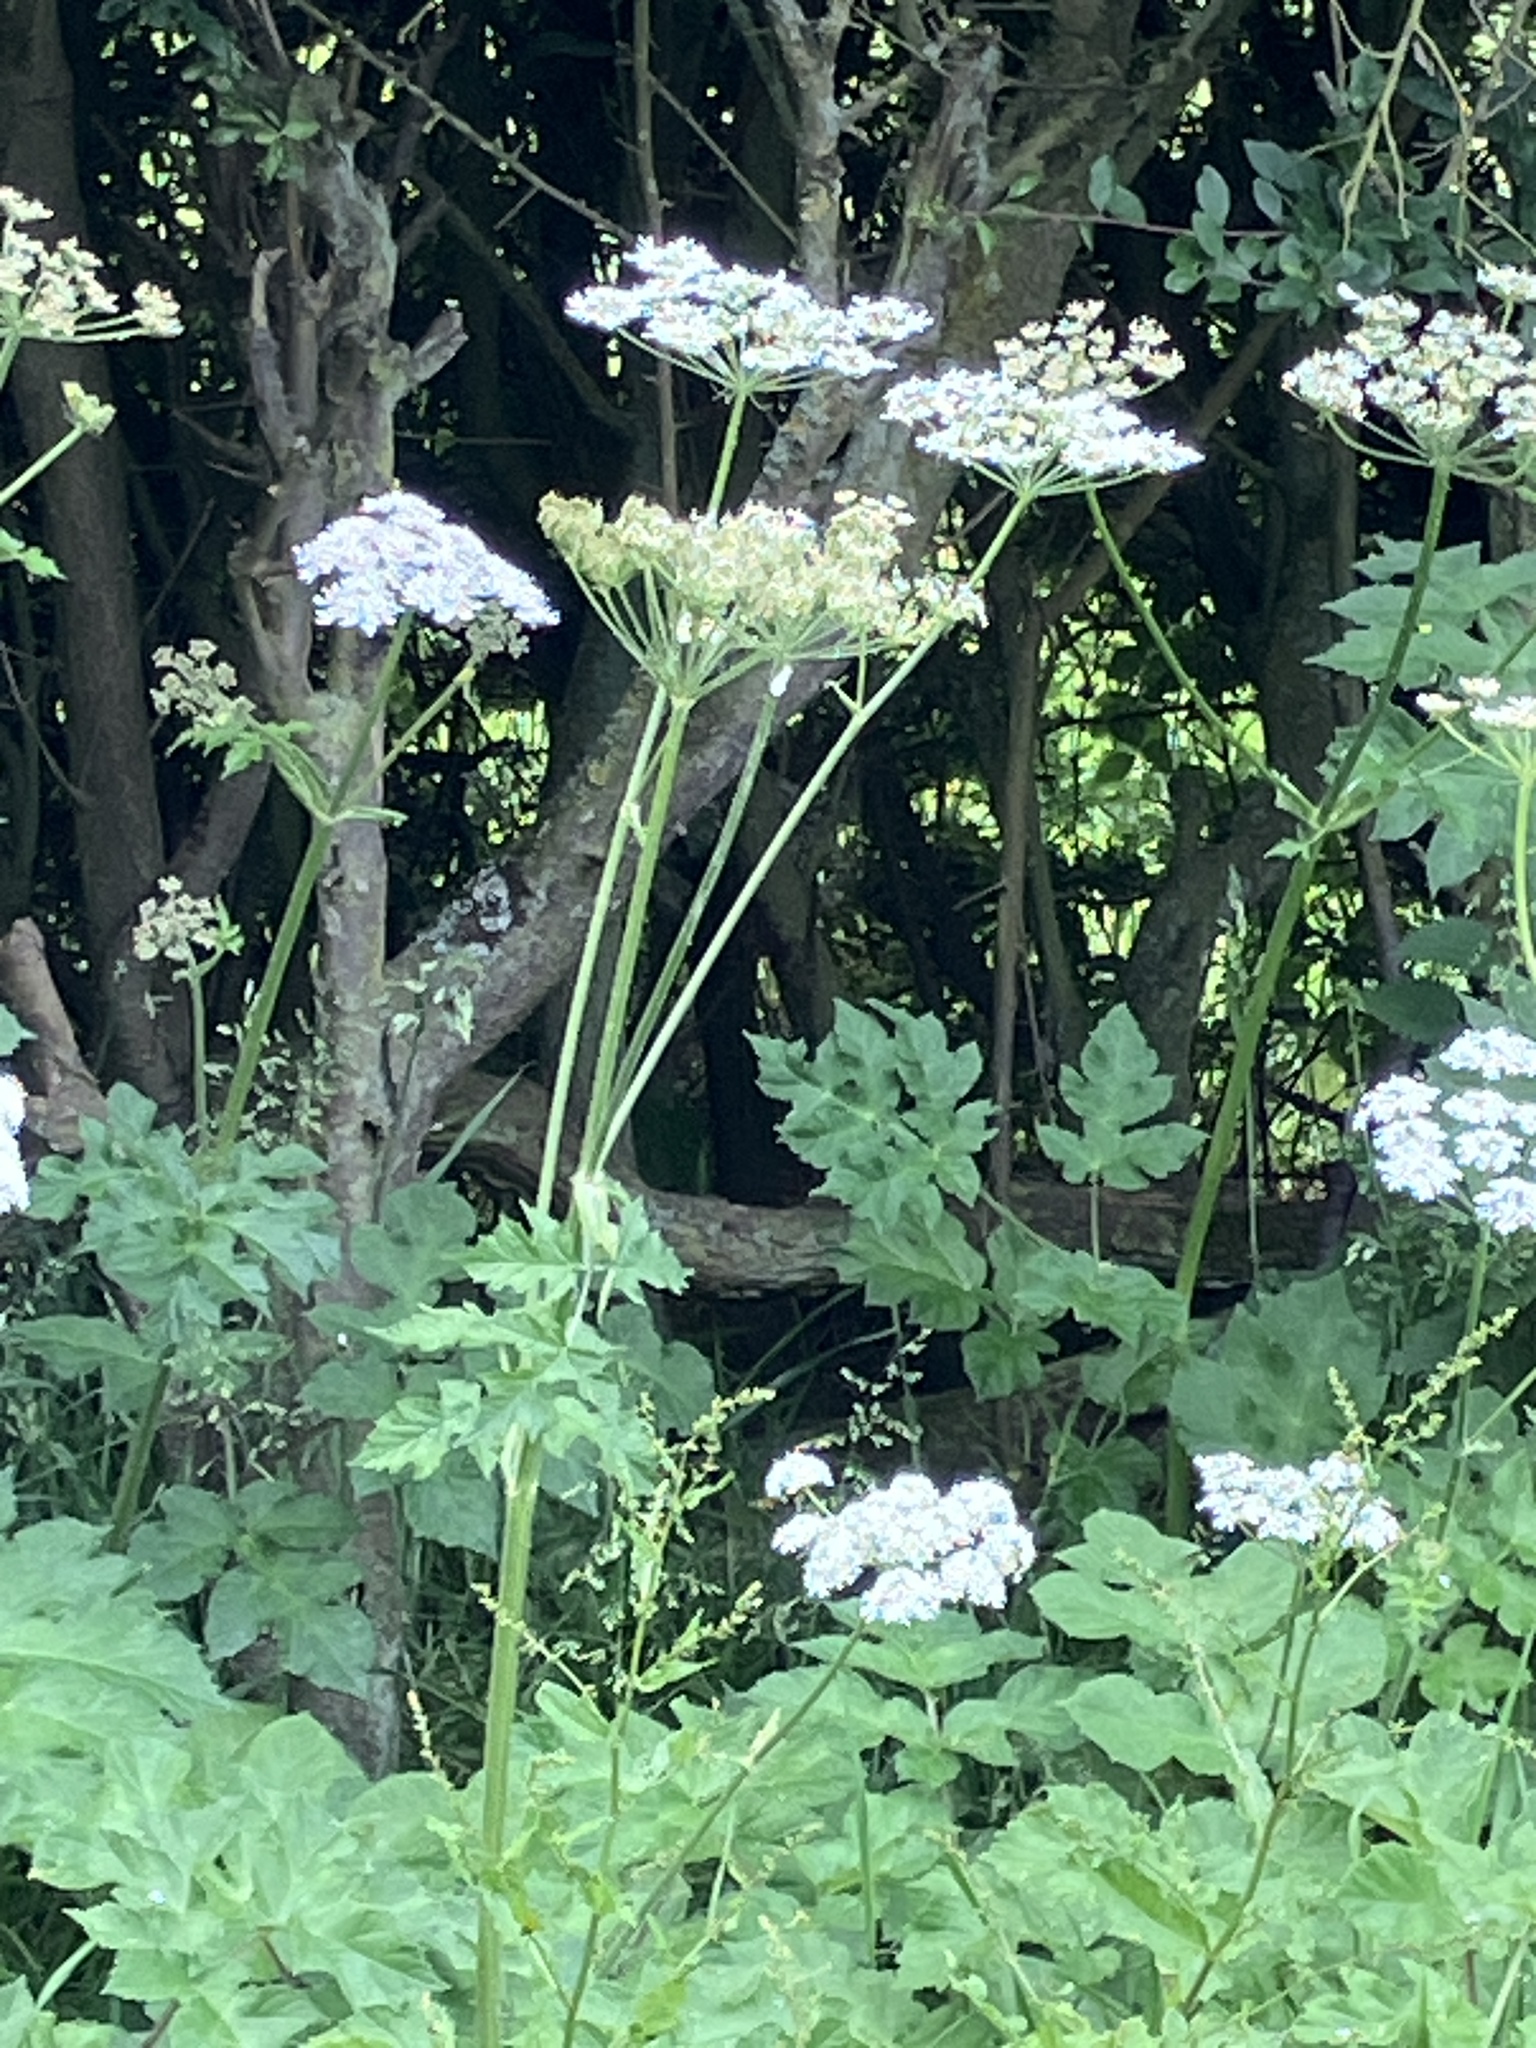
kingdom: Plantae
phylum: Tracheophyta
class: Magnoliopsida
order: Apiales
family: Apiaceae
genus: Heracleum
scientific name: Heracleum sphondylium
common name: Hogweed
